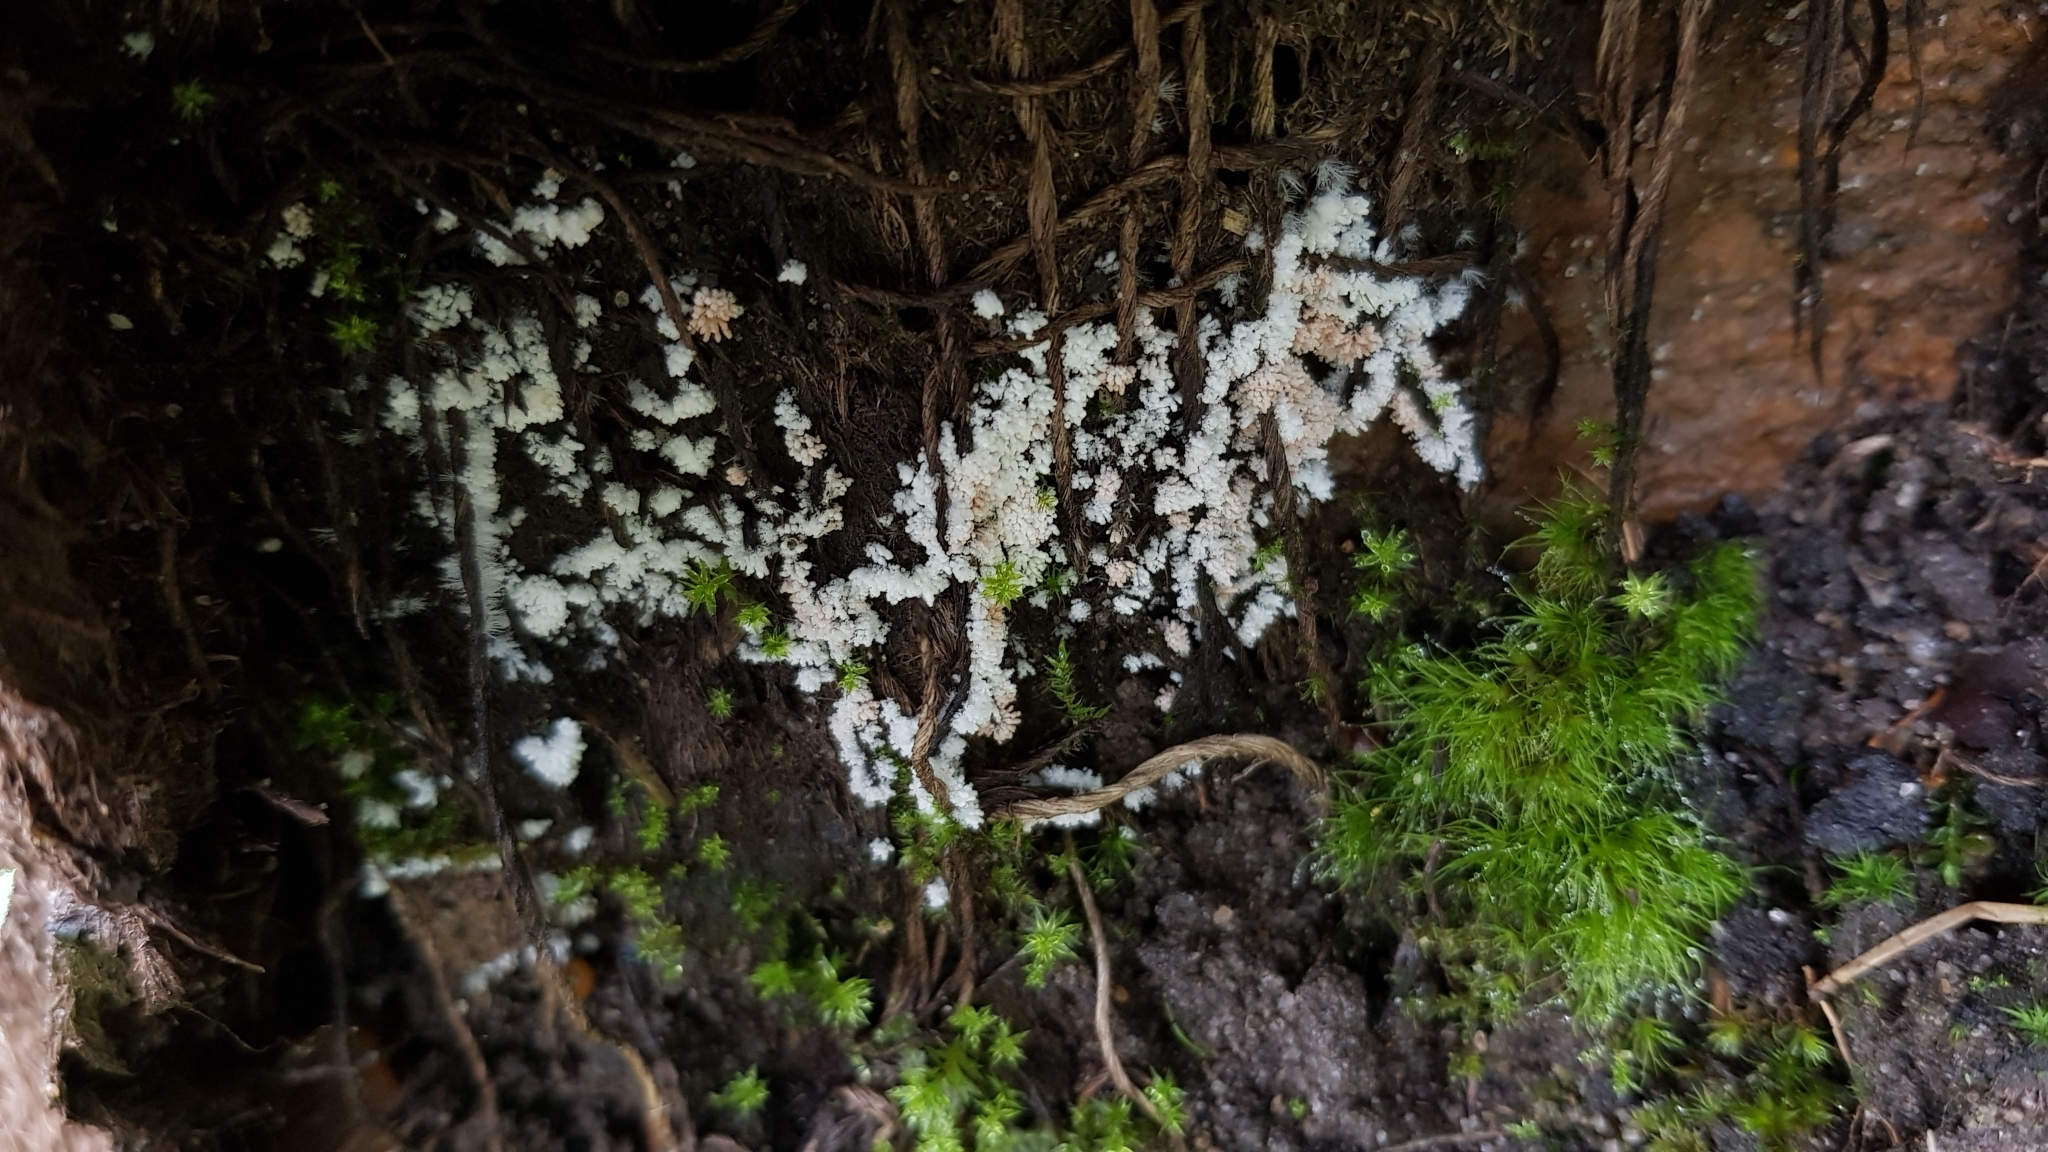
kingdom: Fungi
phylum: Ascomycota
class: Pezizomycetes
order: Pezizales
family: Pezizaceae
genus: Chromelosporiopsis
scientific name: Chromelosporiopsis carnea
